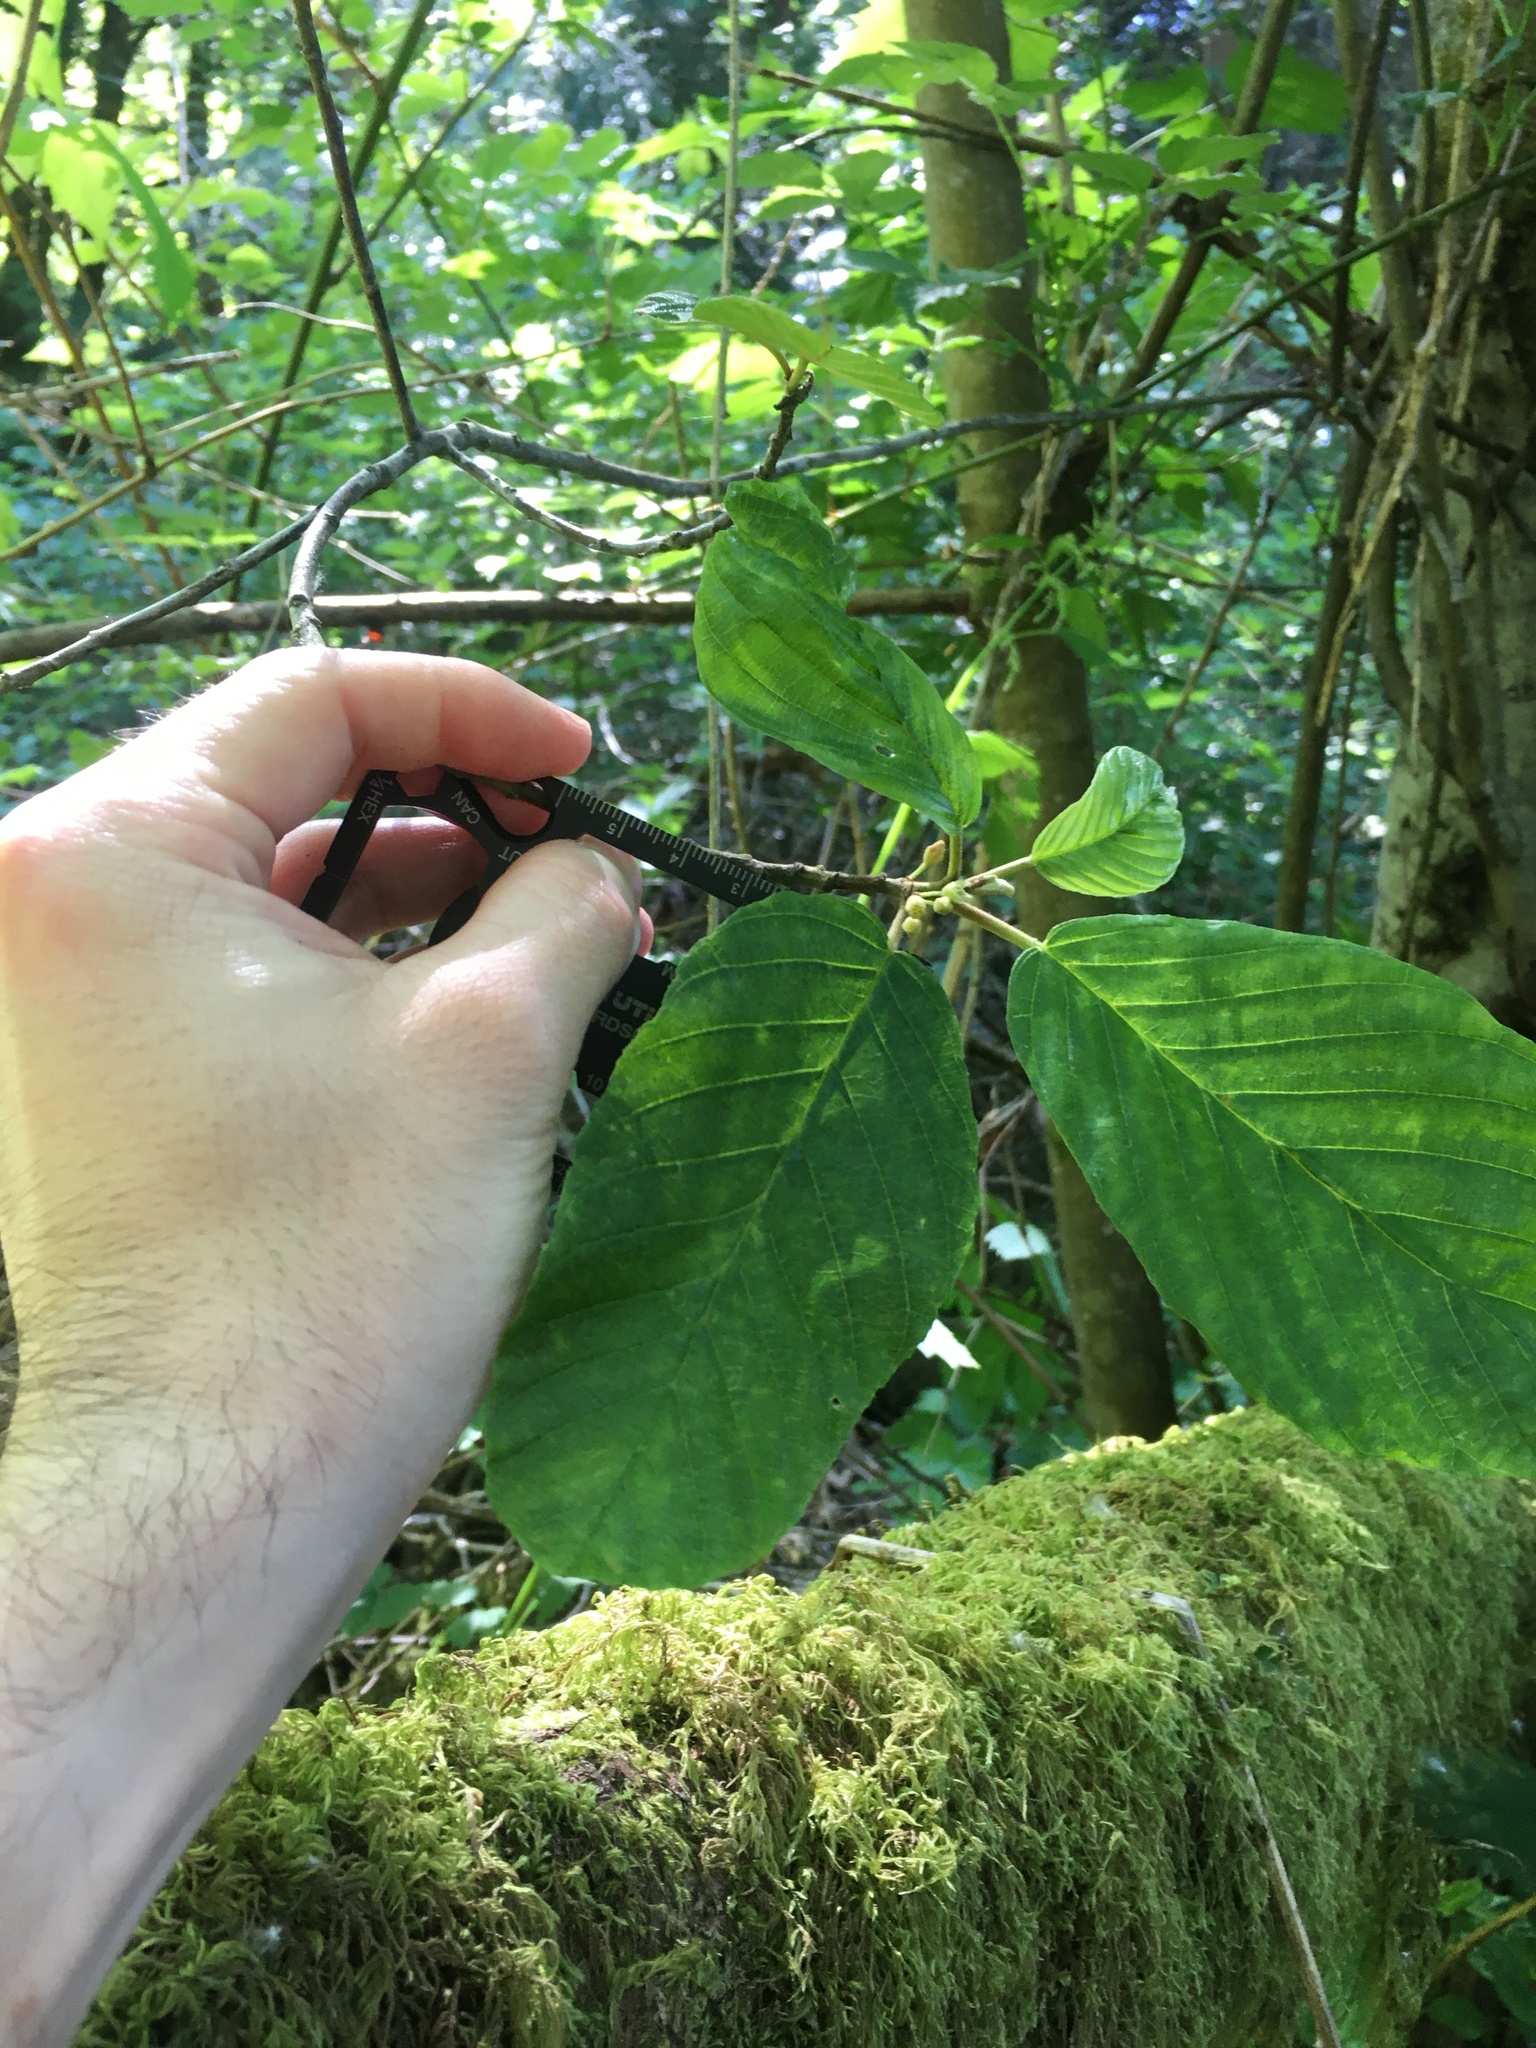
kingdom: Plantae
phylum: Tracheophyta
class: Magnoliopsida
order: Rosales
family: Rhamnaceae
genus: Frangula
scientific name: Frangula purshiana
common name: Cascara buckthorn
